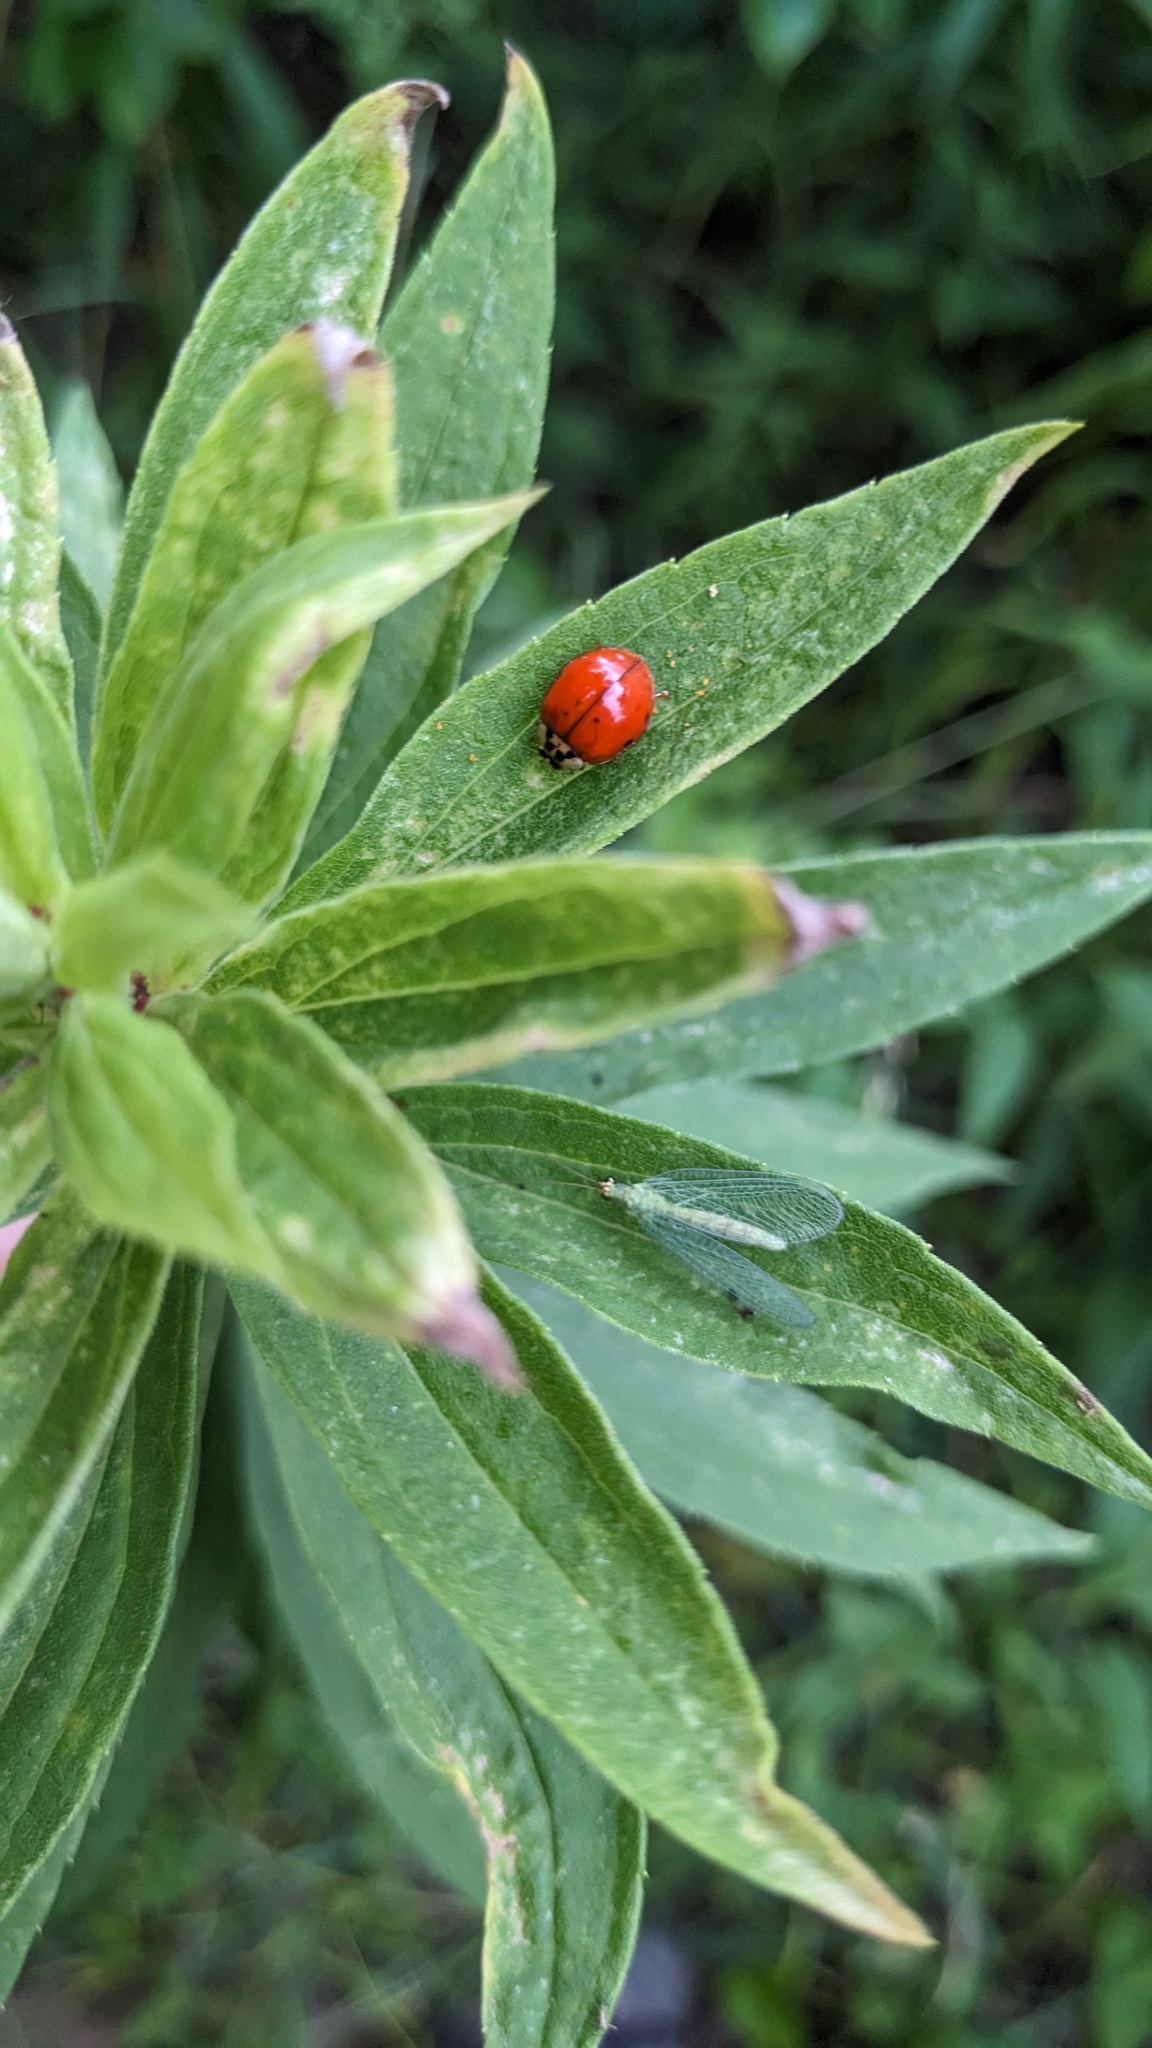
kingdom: Animalia
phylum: Arthropoda
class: Insecta
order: Coleoptera
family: Coccinellidae
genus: Harmonia
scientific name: Harmonia axyridis
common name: Harlequin ladybird
